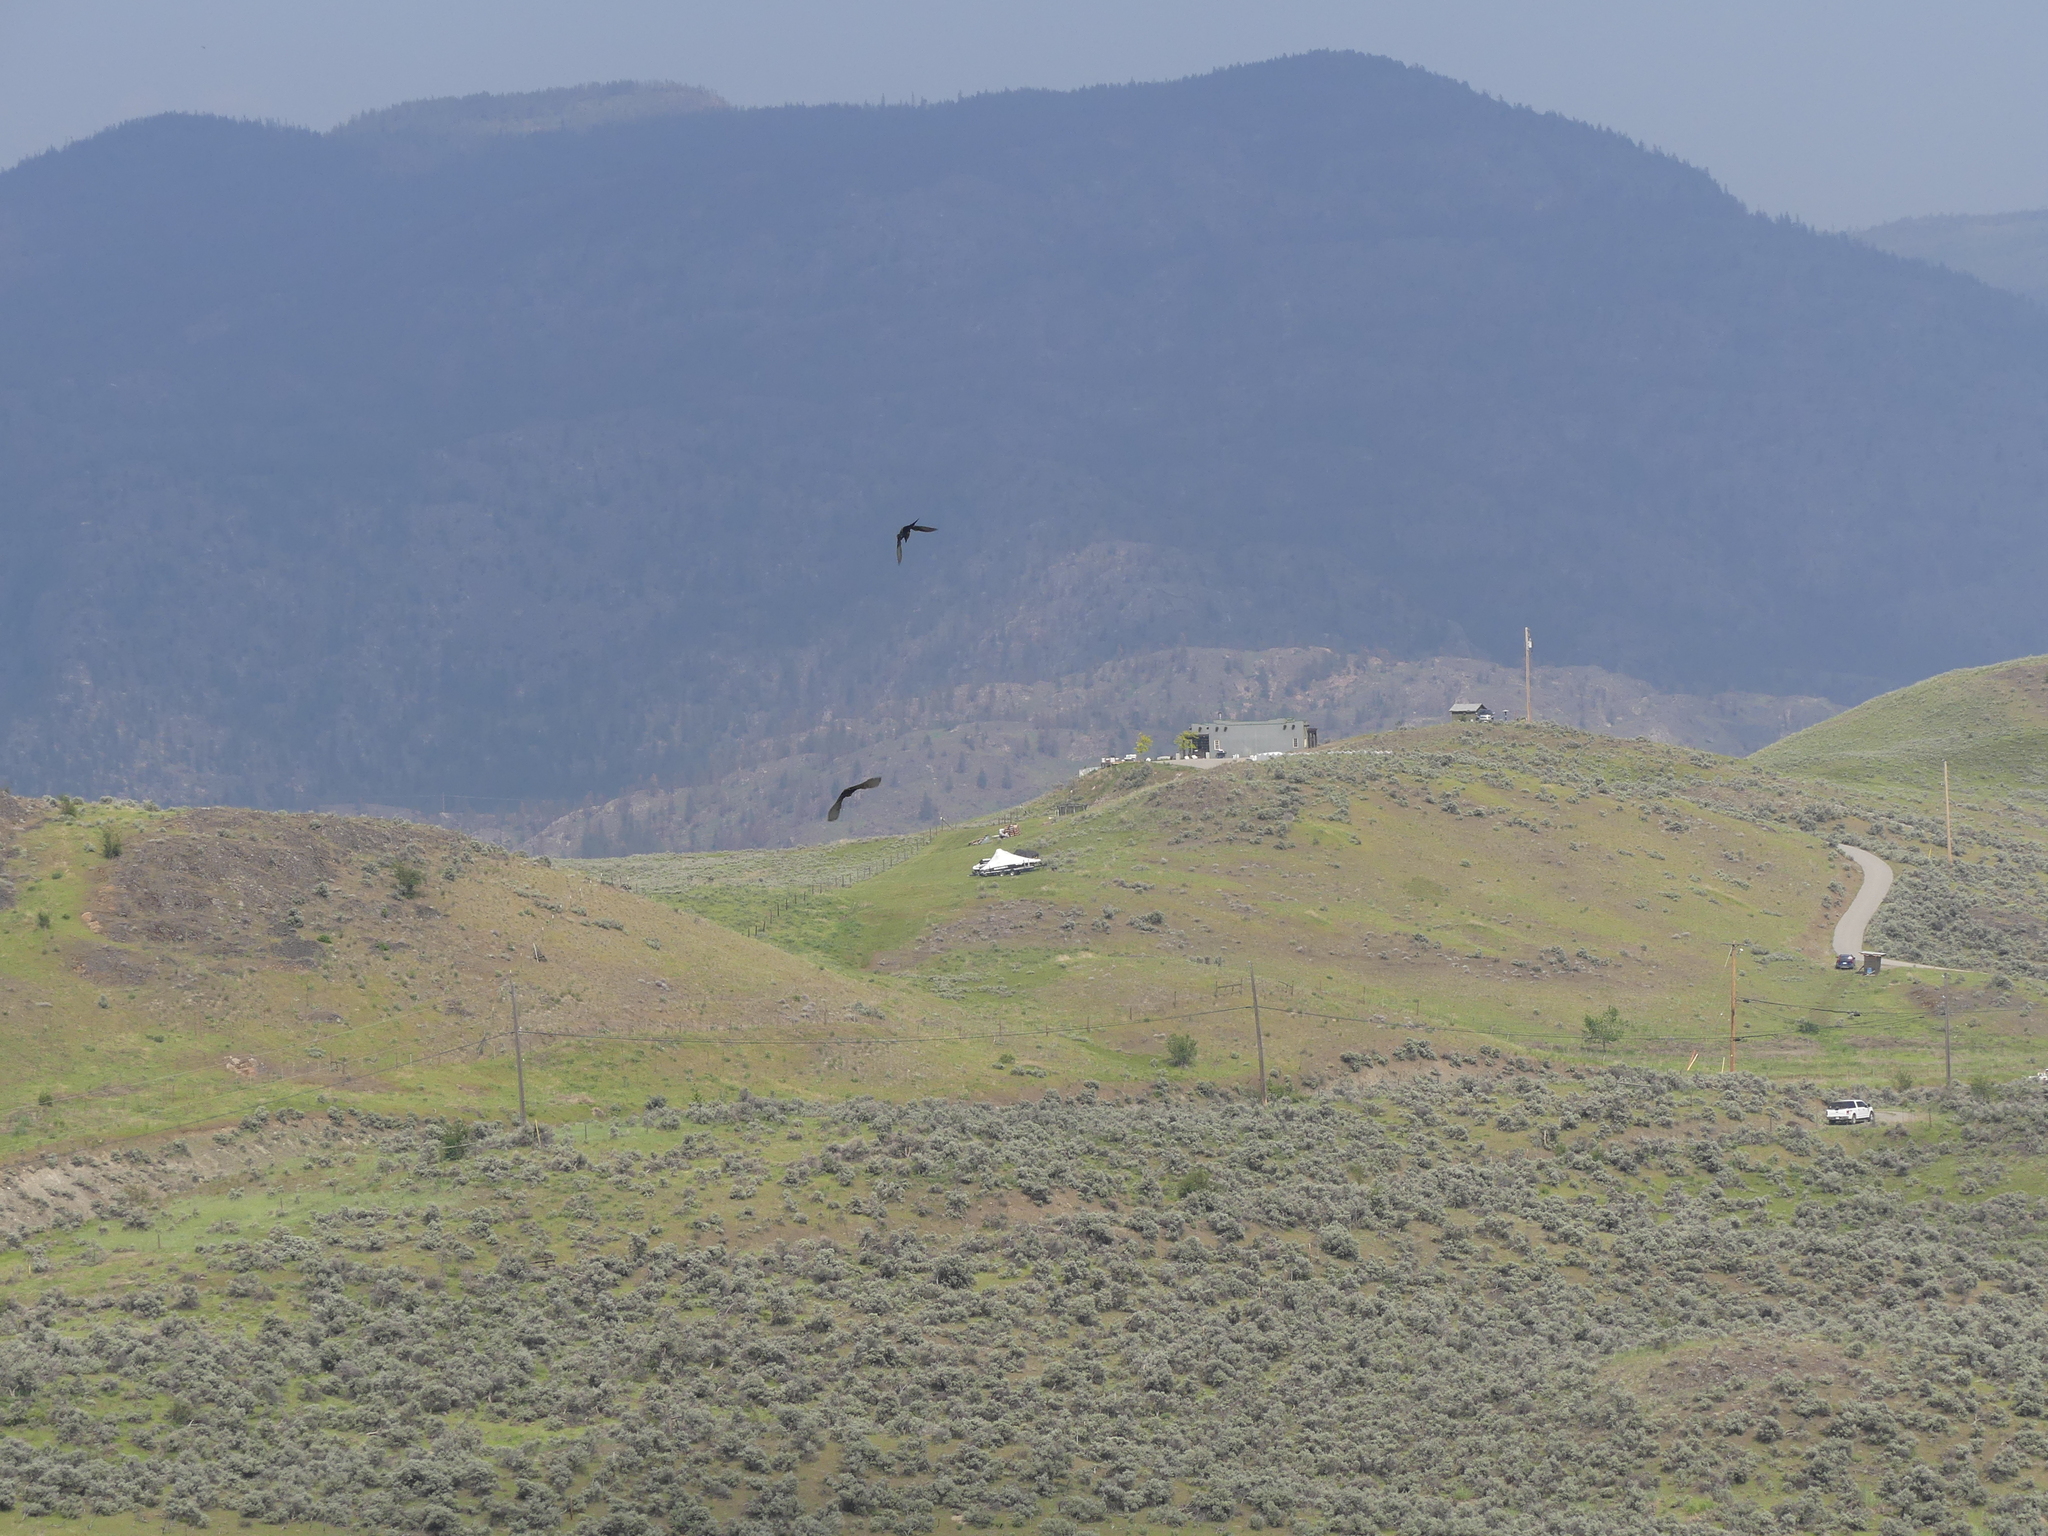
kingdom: Animalia
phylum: Chordata
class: Aves
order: Passeriformes
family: Tyrannidae
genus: Tyrannus
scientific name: Tyrannus verticalis
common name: Western kingbird
